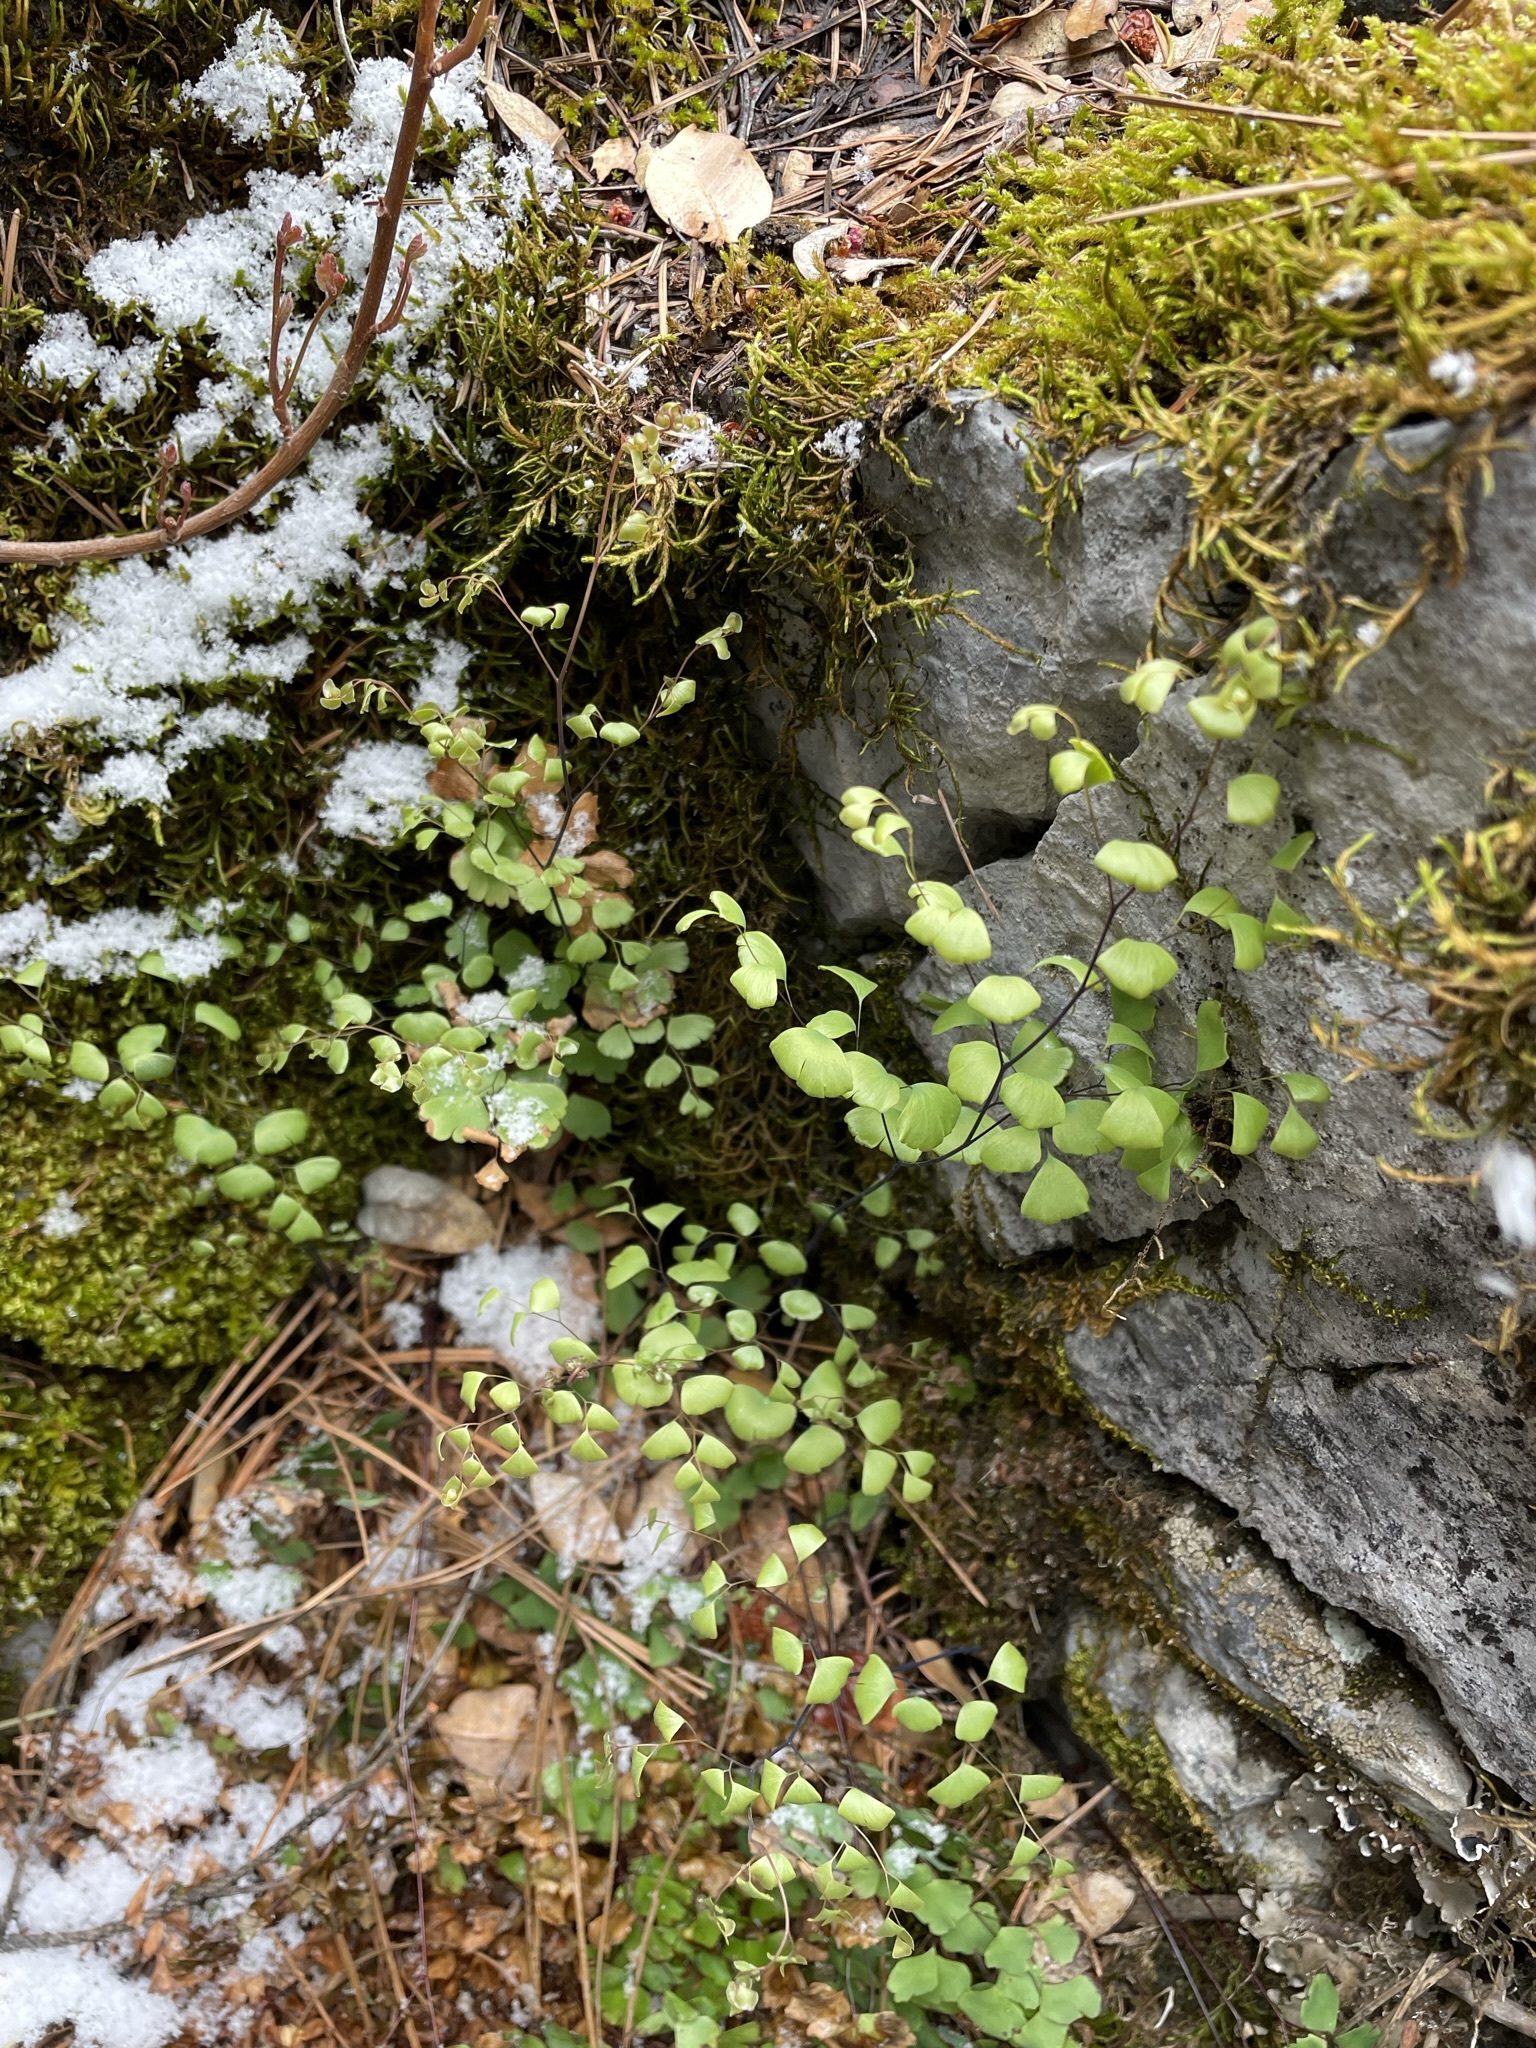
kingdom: Plantae
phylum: Tracheophyta
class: Polypodiopsida
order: Polypodiales
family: Pteridaceae
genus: Adiantum
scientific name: Adiantum shastense
